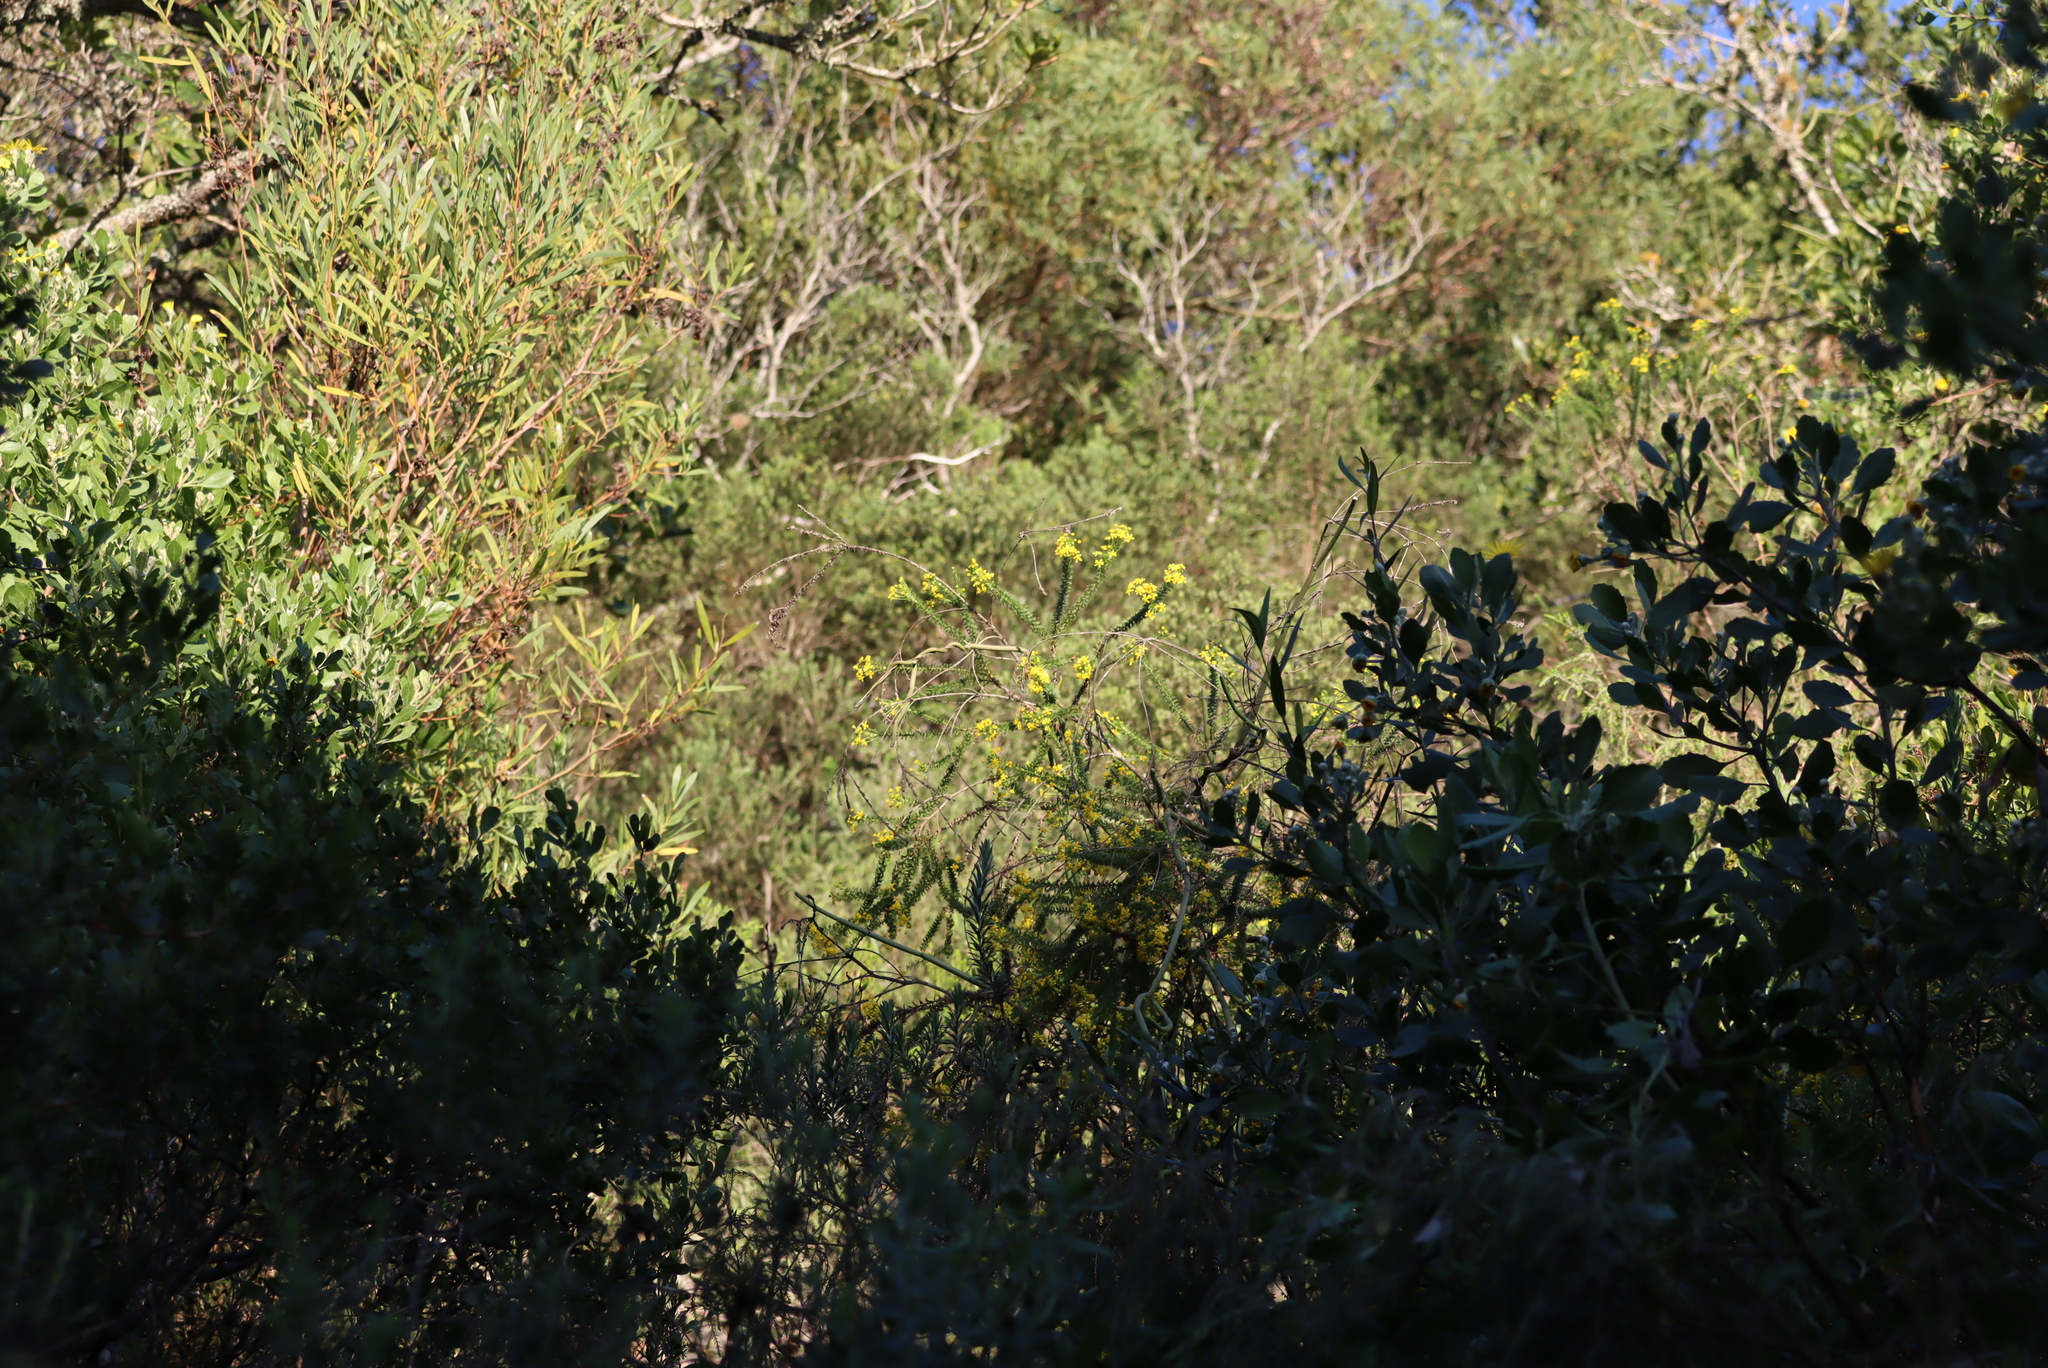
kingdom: Plantae
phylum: Tracheophyta
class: Magnoliopsida
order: Asterales
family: Asteraceae
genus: Euryops
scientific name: Euryops virgineus
